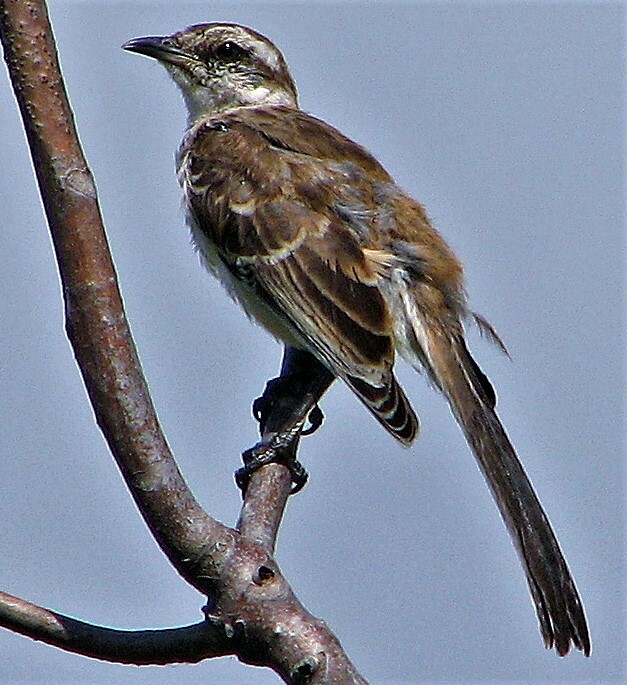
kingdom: Animalia
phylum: Chordata
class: Aves
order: Passeriformes
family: Mimidae
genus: Mimus
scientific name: Mimus saturninus
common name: Chalk-browed mockingbird
